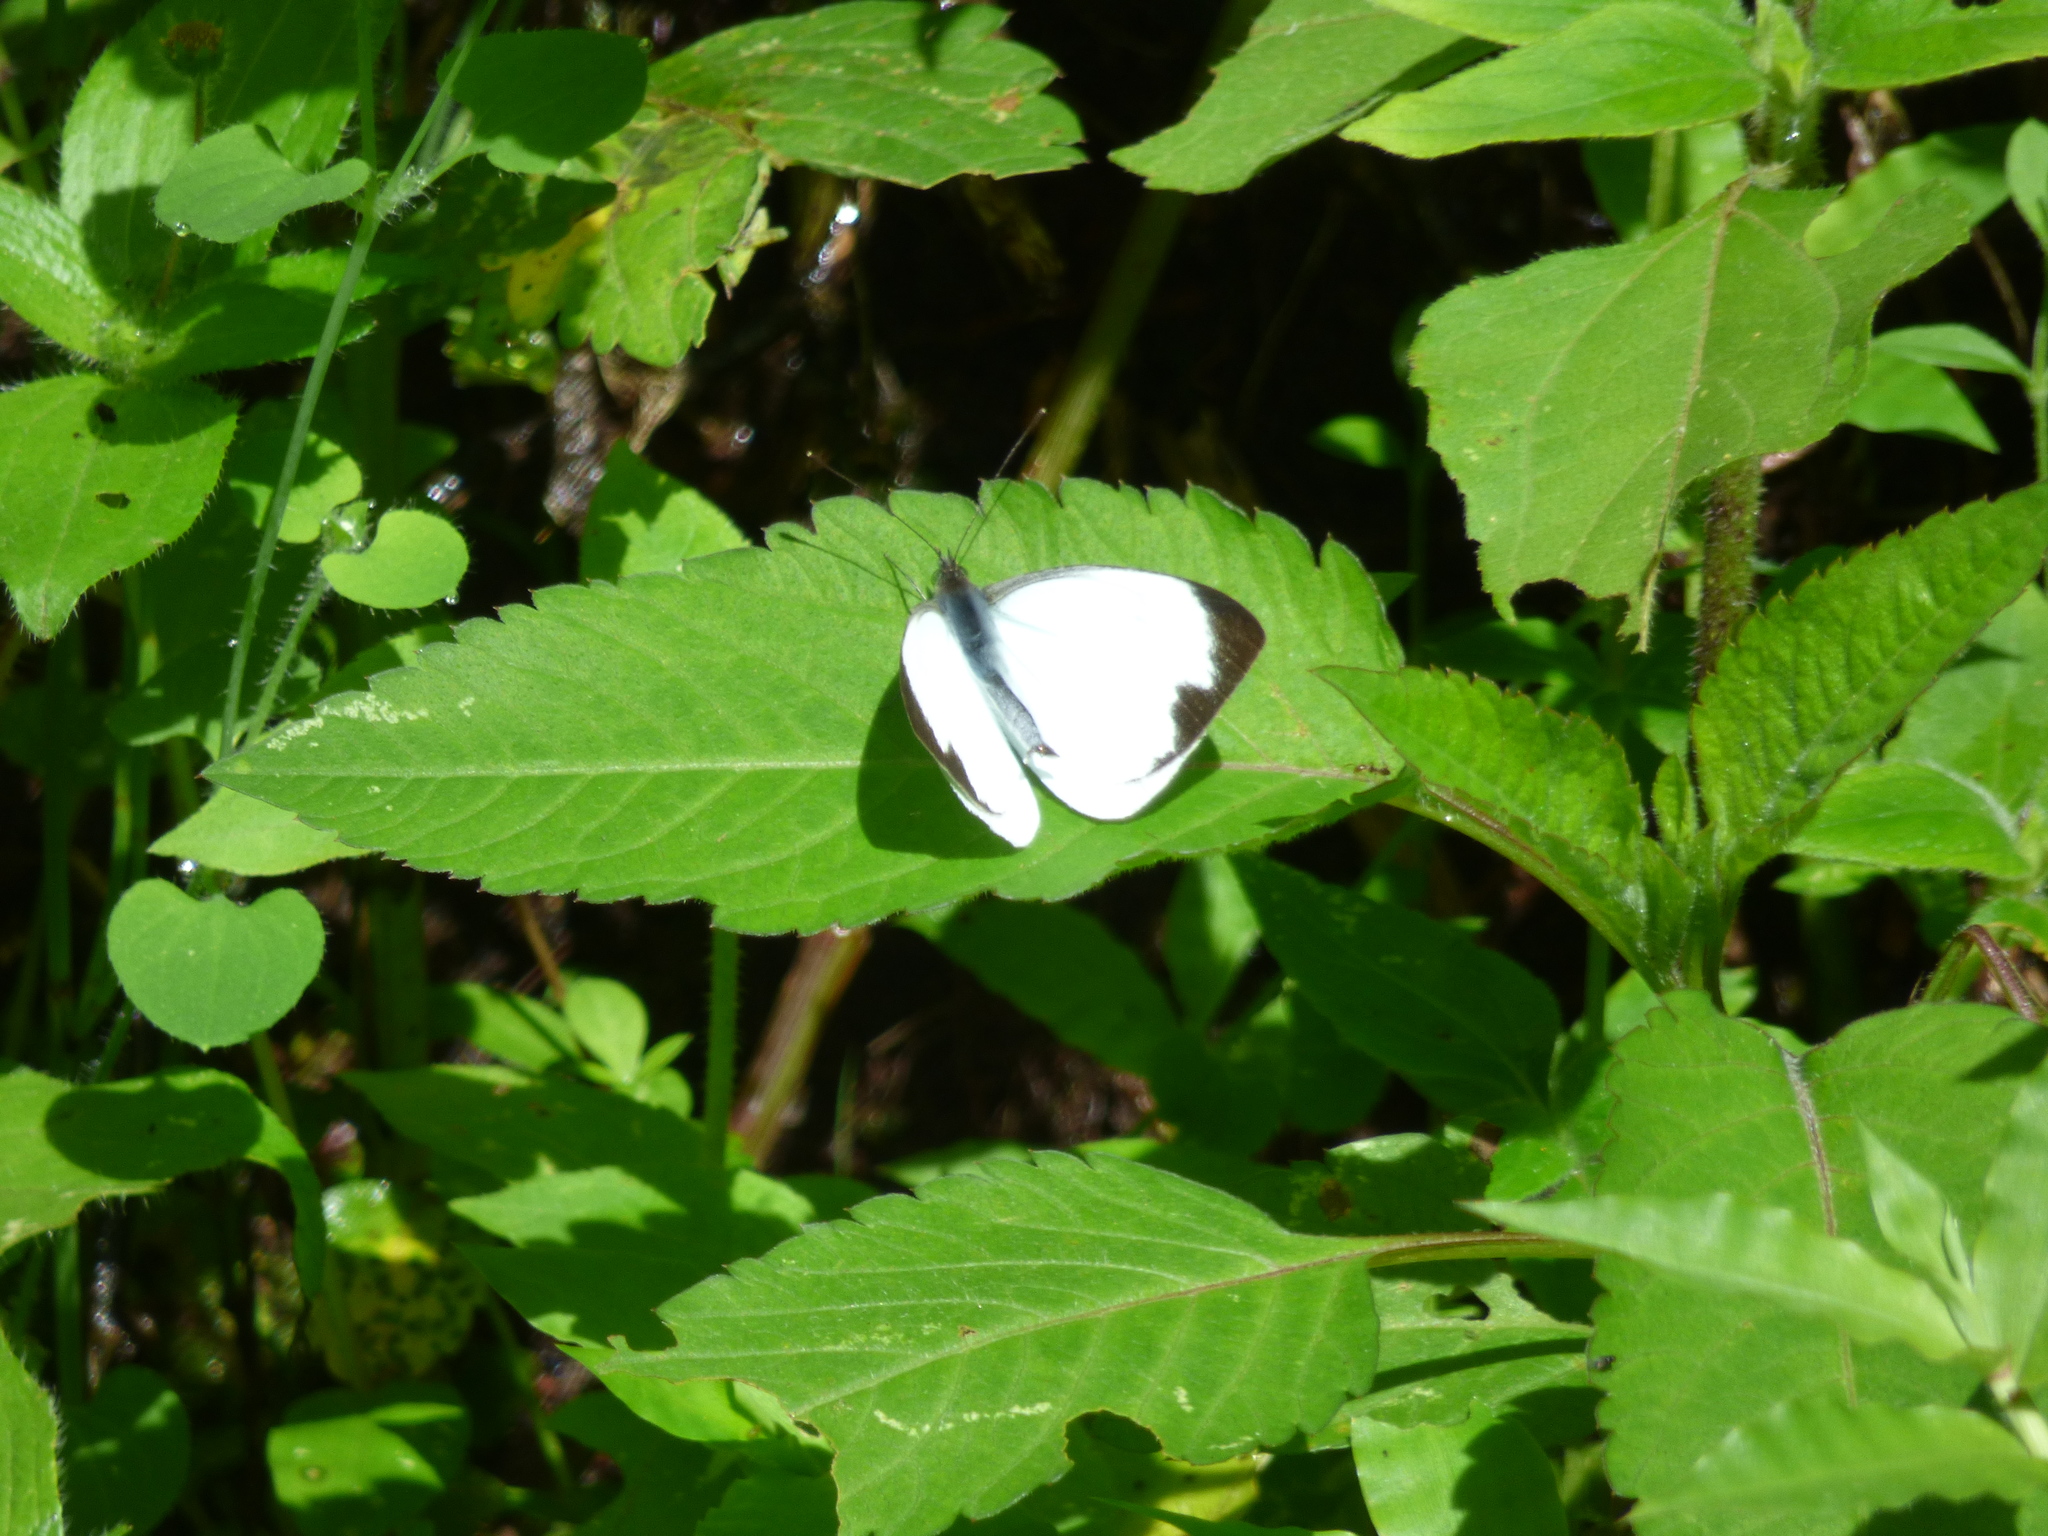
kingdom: Animalia
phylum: Arthropoda
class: Insecta
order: Lepidoptera
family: Pieridae
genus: Leptophobia
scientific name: Leptophobia aripa
